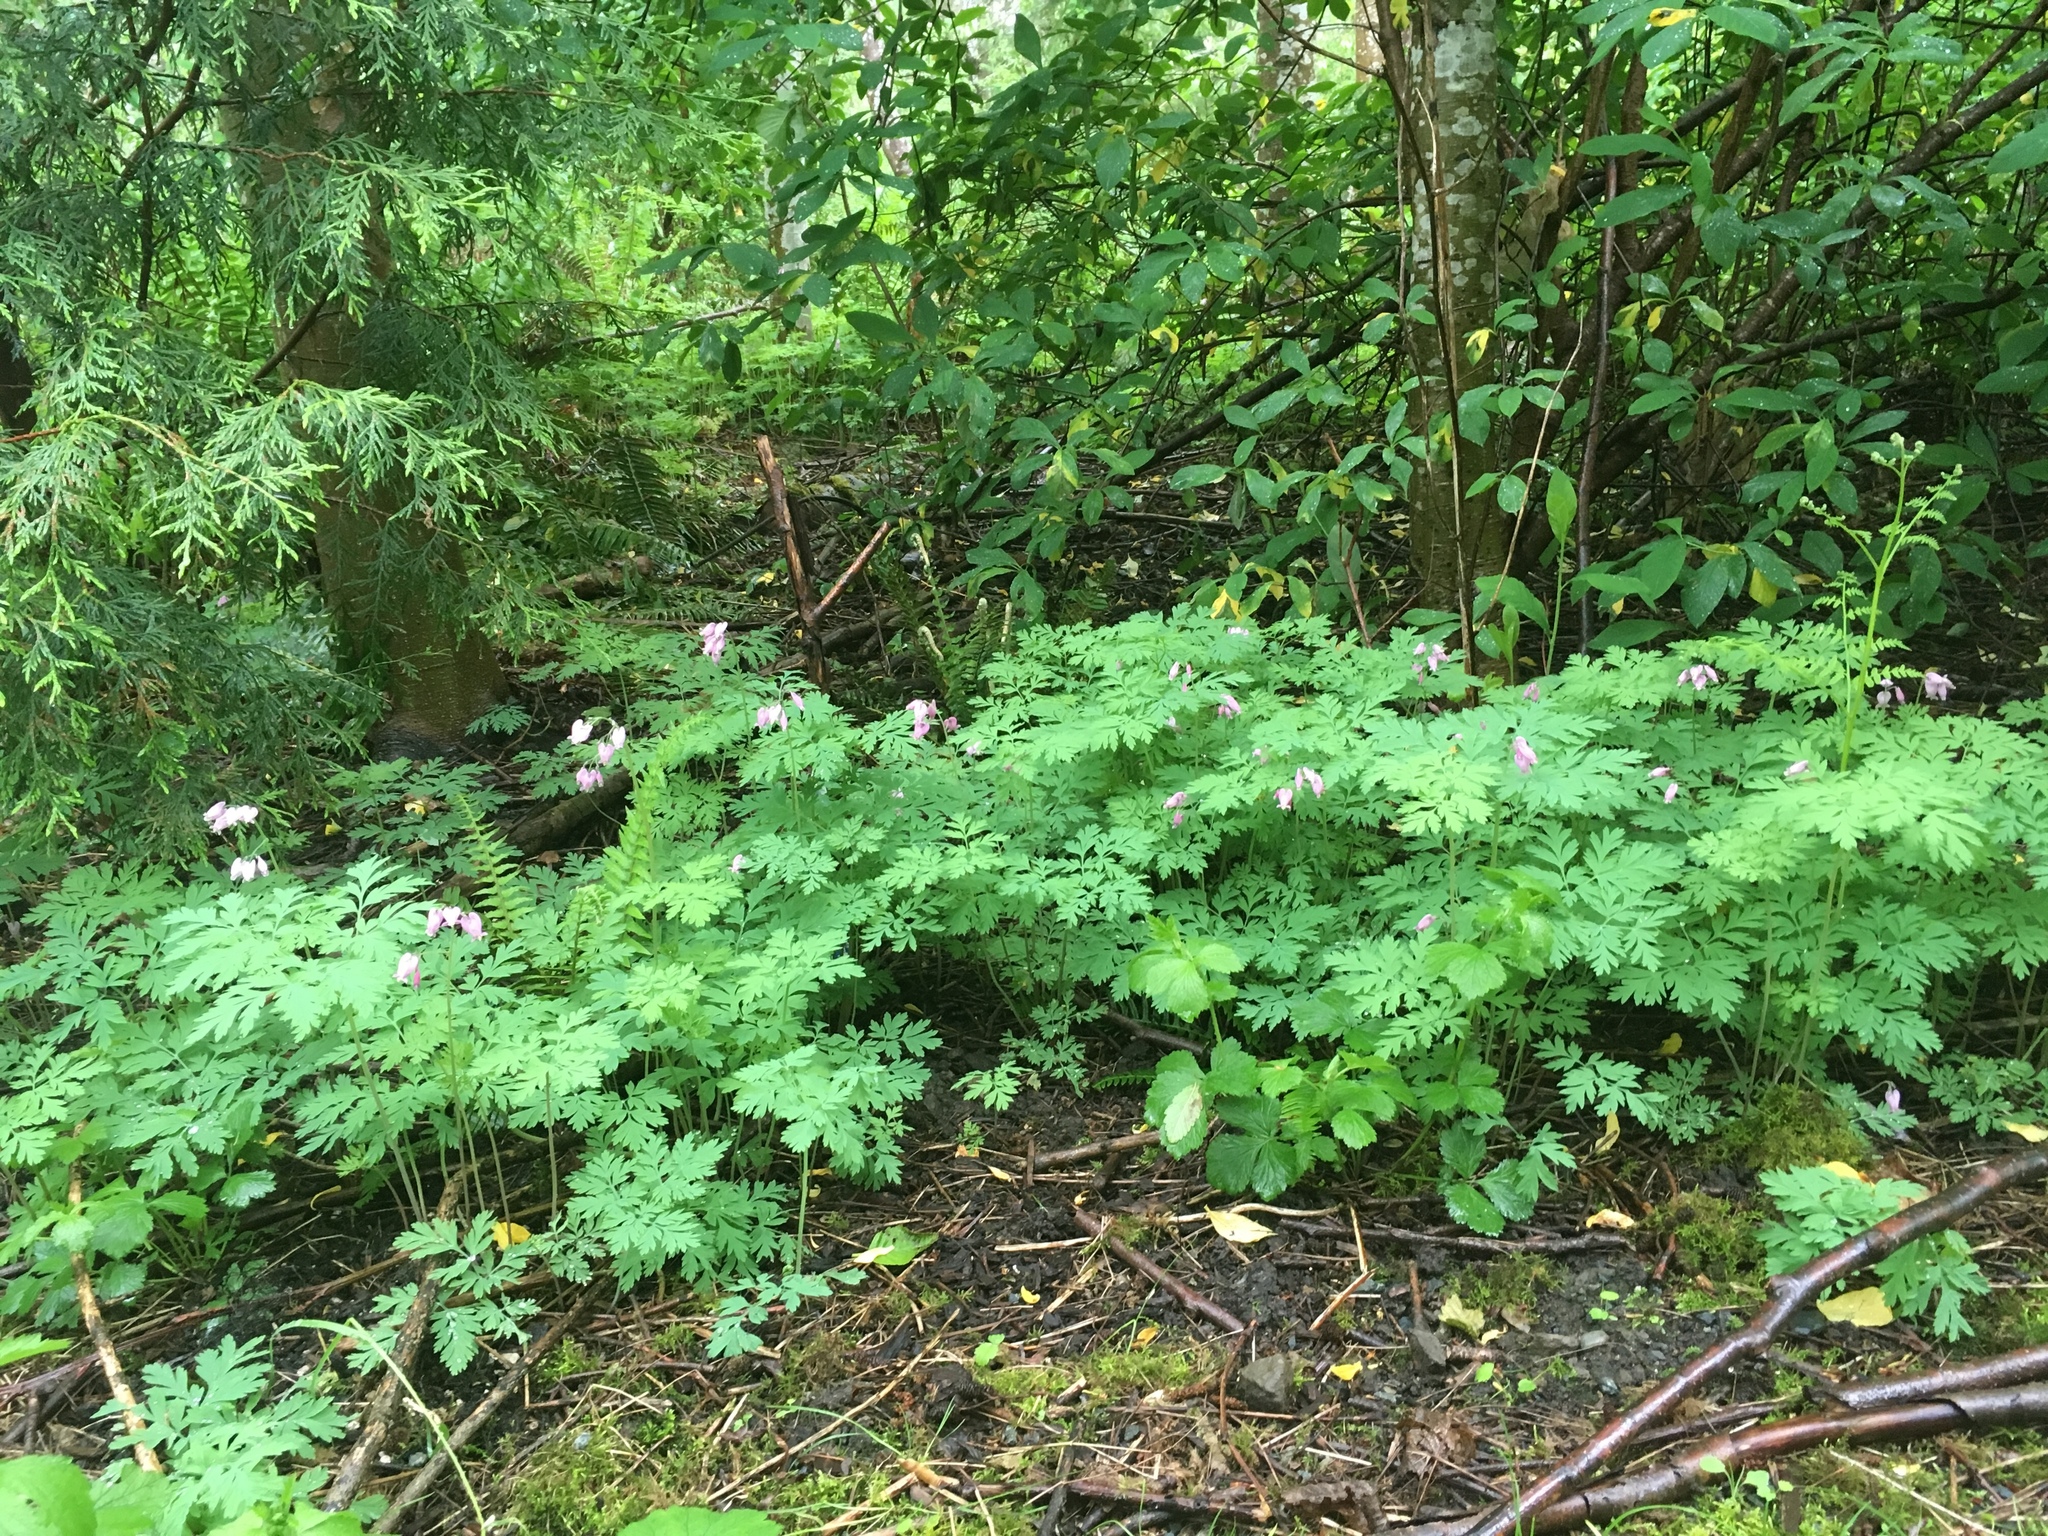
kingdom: Plantae
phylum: Tracheophyta
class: Magnoliopsida
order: Ranunculales
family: Papaveraceae
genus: Dicentra
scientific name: Dicentra formosa
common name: Bleeding-heart
